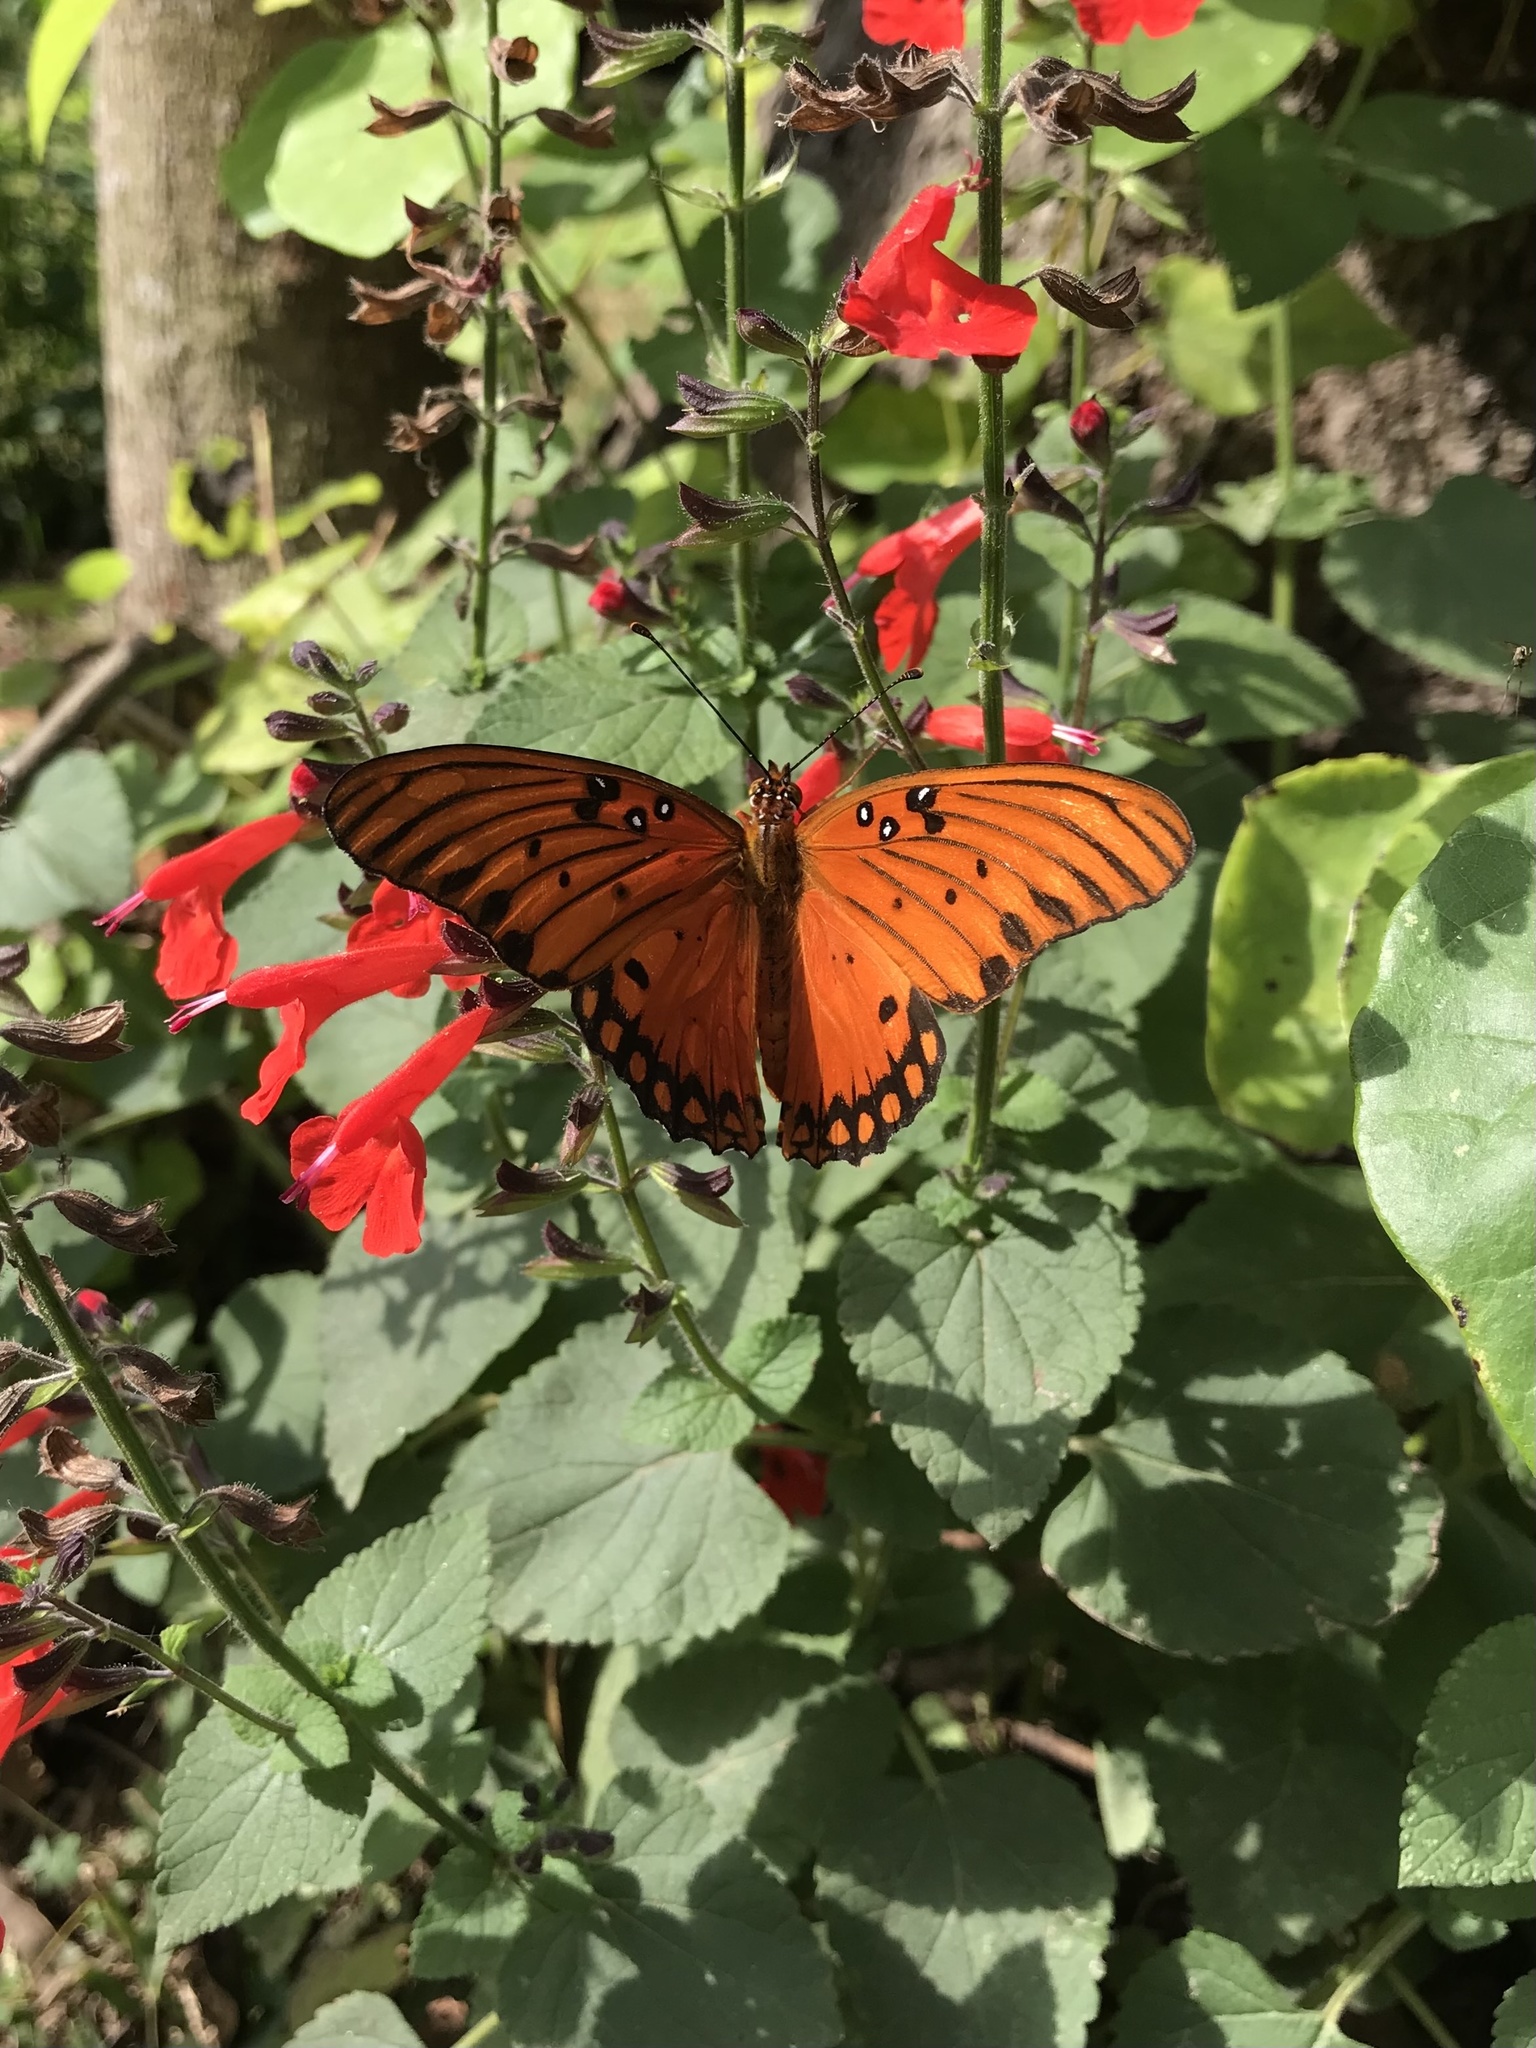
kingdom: Animalia
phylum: Arthropoda
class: Insecta
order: Lepidoptera
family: Nymphalidae
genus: Dione
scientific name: Dione vanillae
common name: Gulf fritillary
